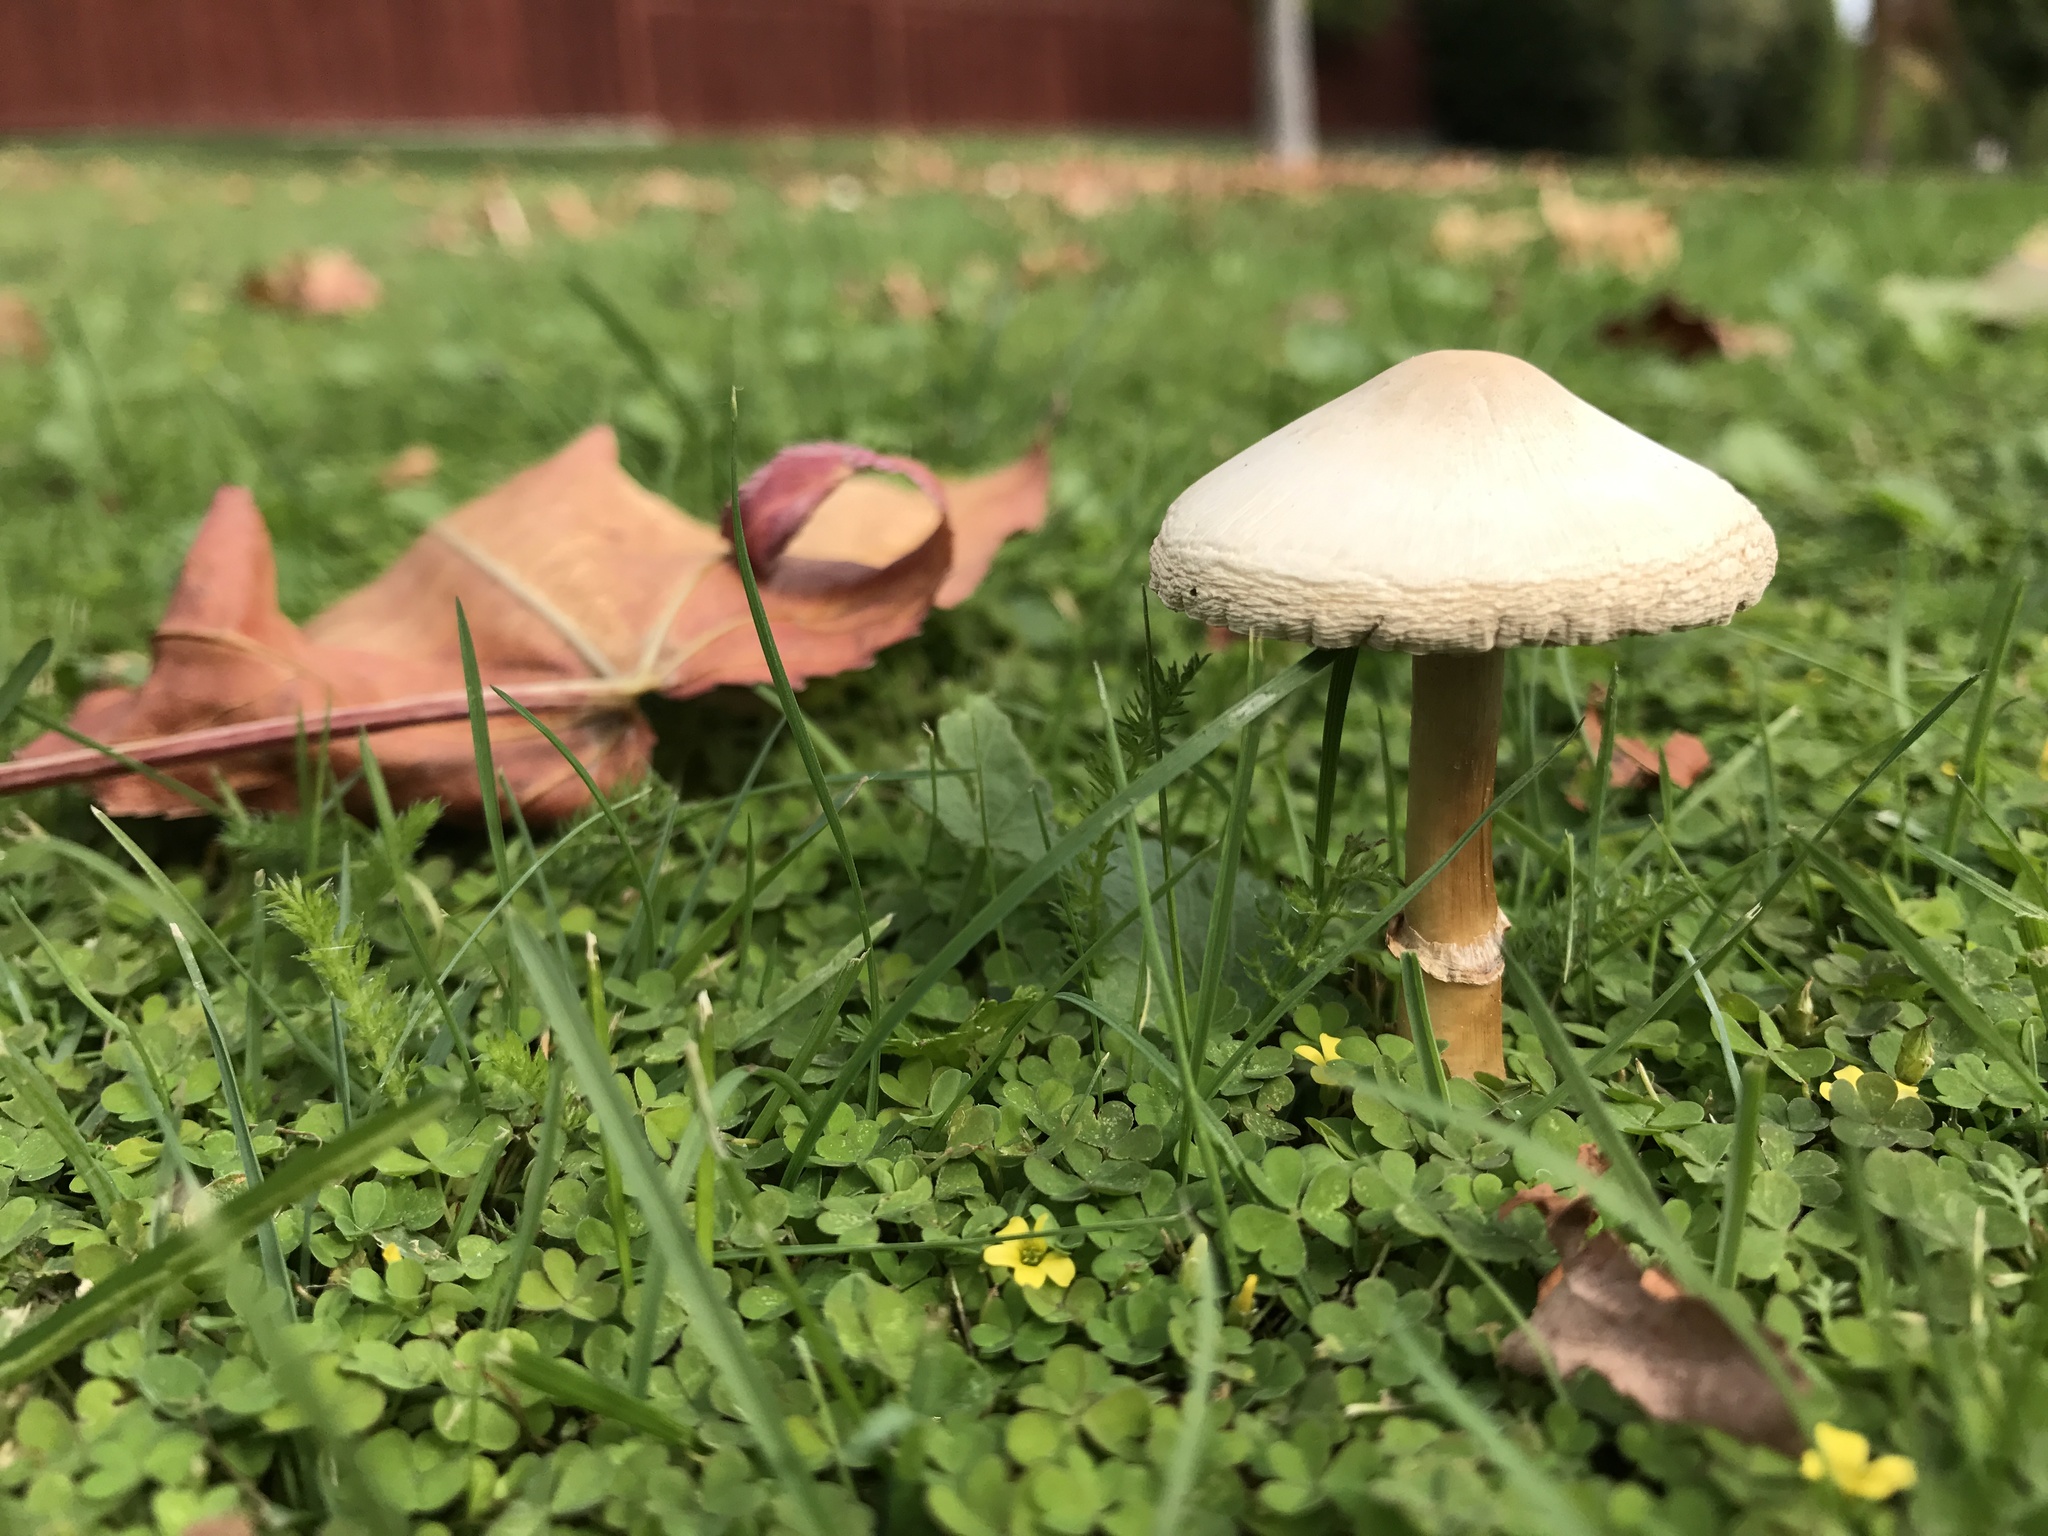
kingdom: Fungi
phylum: Basidiomycota
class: Agaricomycetes
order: Agaricales
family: Agaricaceae
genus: Leucoagaricus
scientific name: Leucoagaricus leucothites
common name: White dapperling
